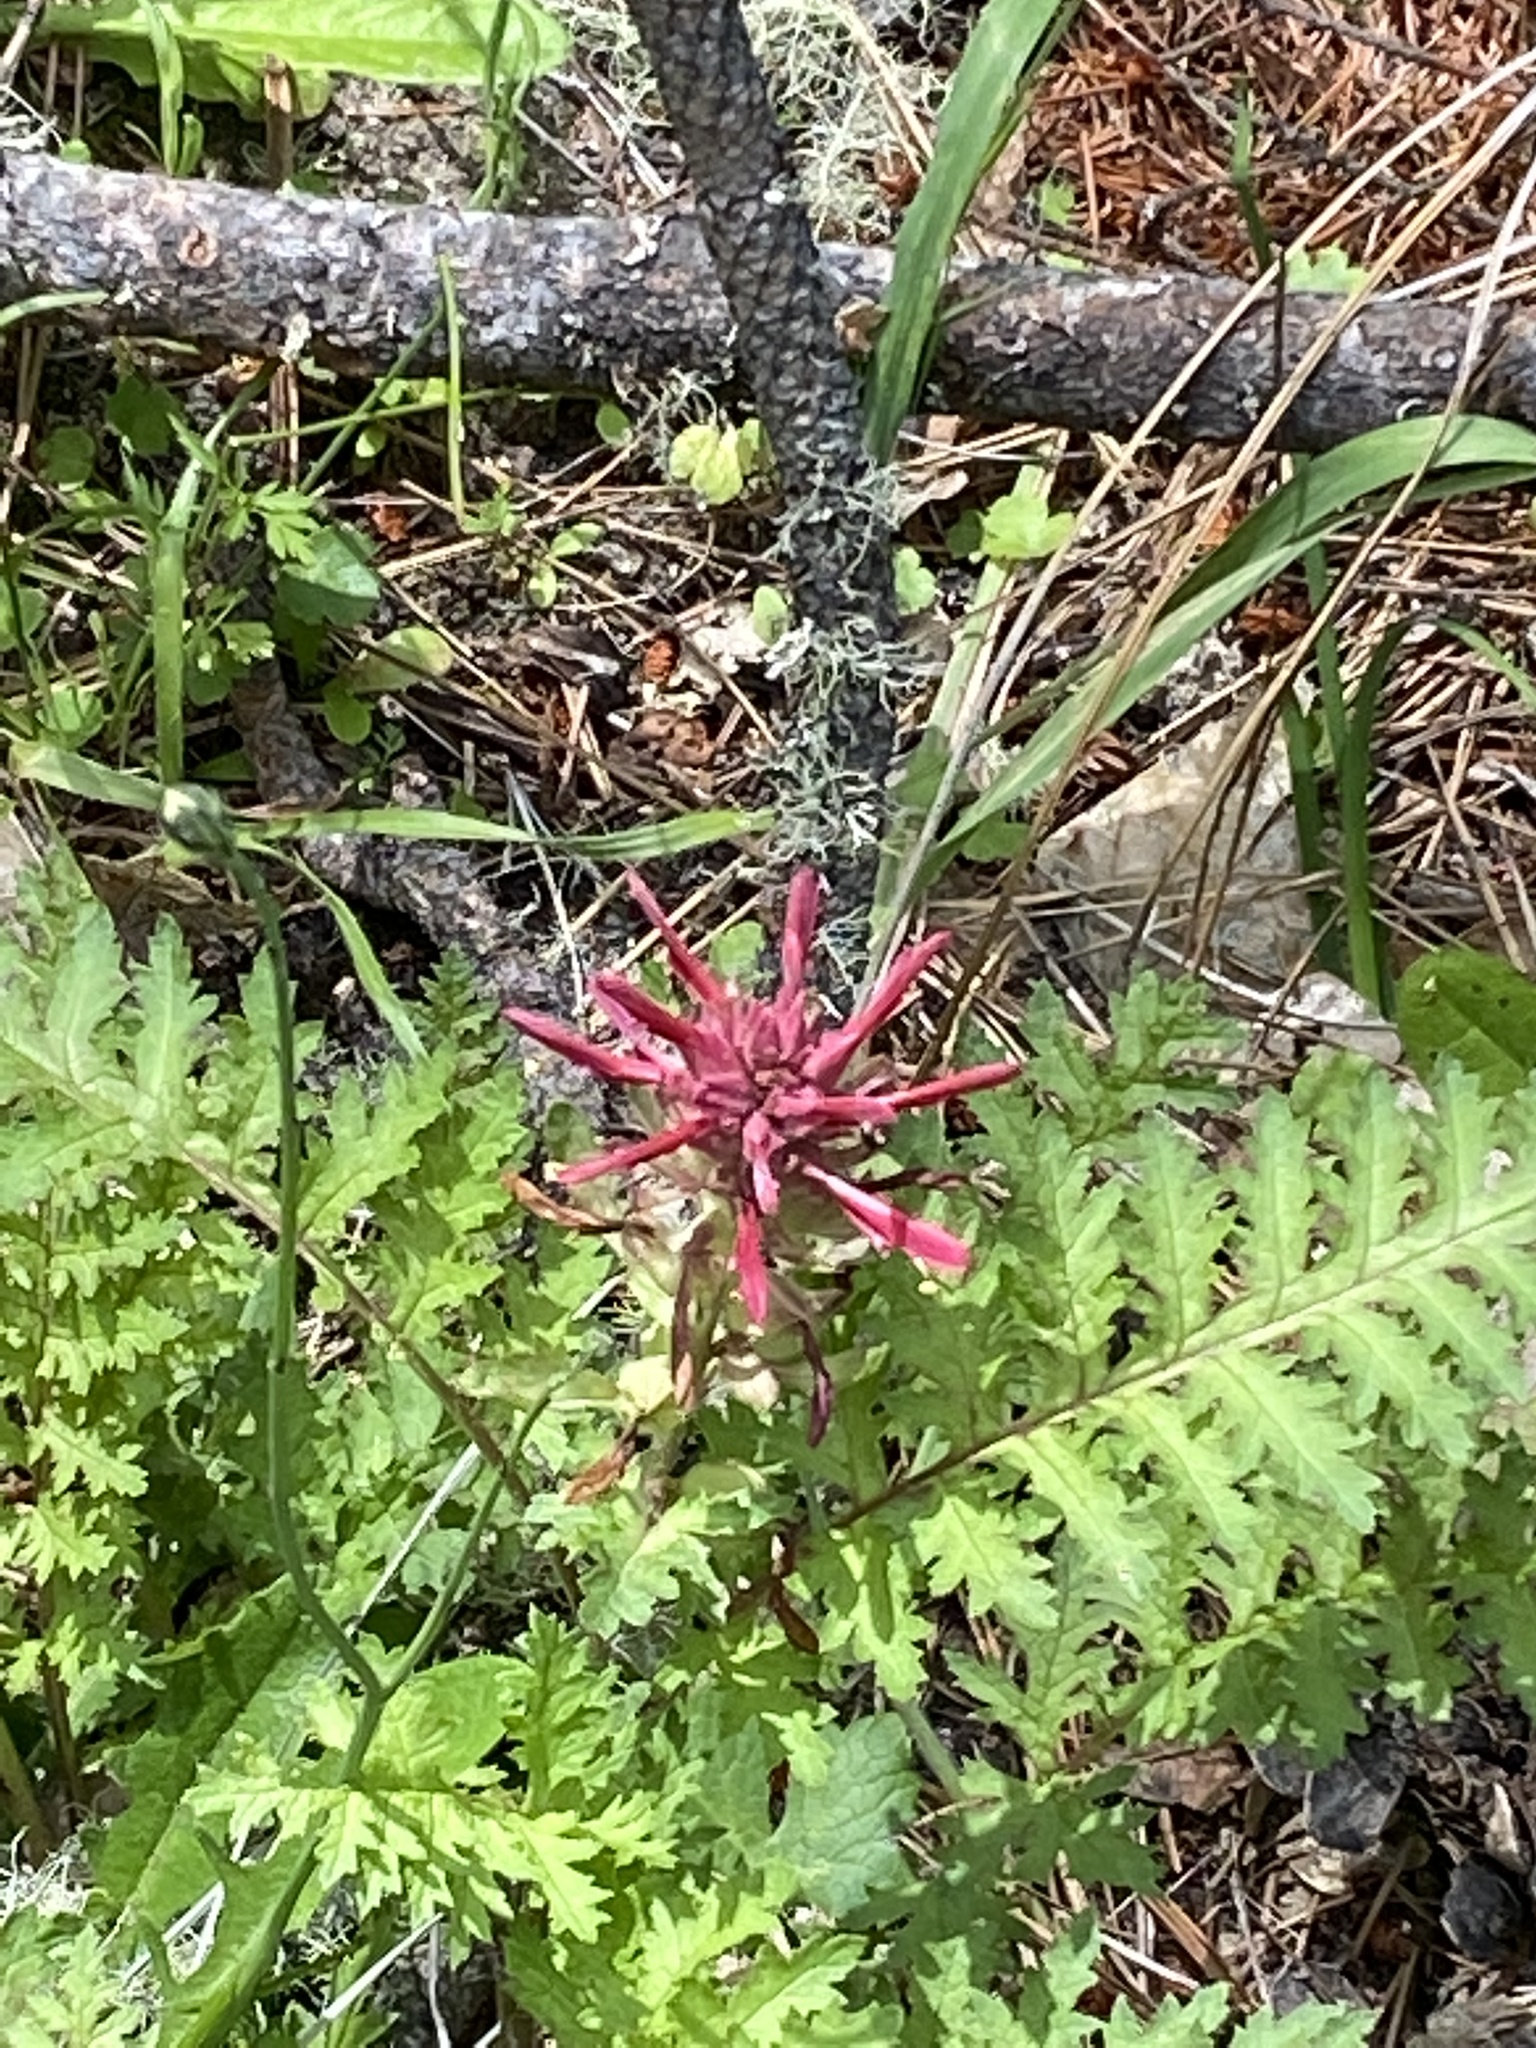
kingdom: Plantae
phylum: Tracheophyta
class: Magnoliopsida
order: Lamiales
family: Orobanchaceae
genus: Pedicularis
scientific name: Pedicularis densiflora
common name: Indian warrior
